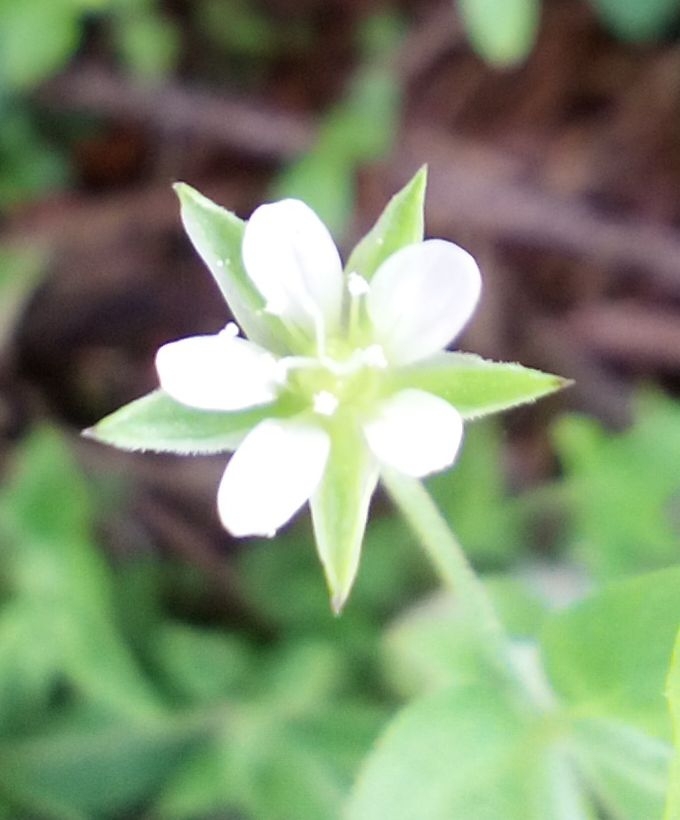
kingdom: Plantae
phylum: Tracheophyta
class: Magnoliopsida
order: Caryophyllales
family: Caryophyllaceae
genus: Moehringia
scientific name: Moehringia trinervia
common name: Three-nerved sandwort
